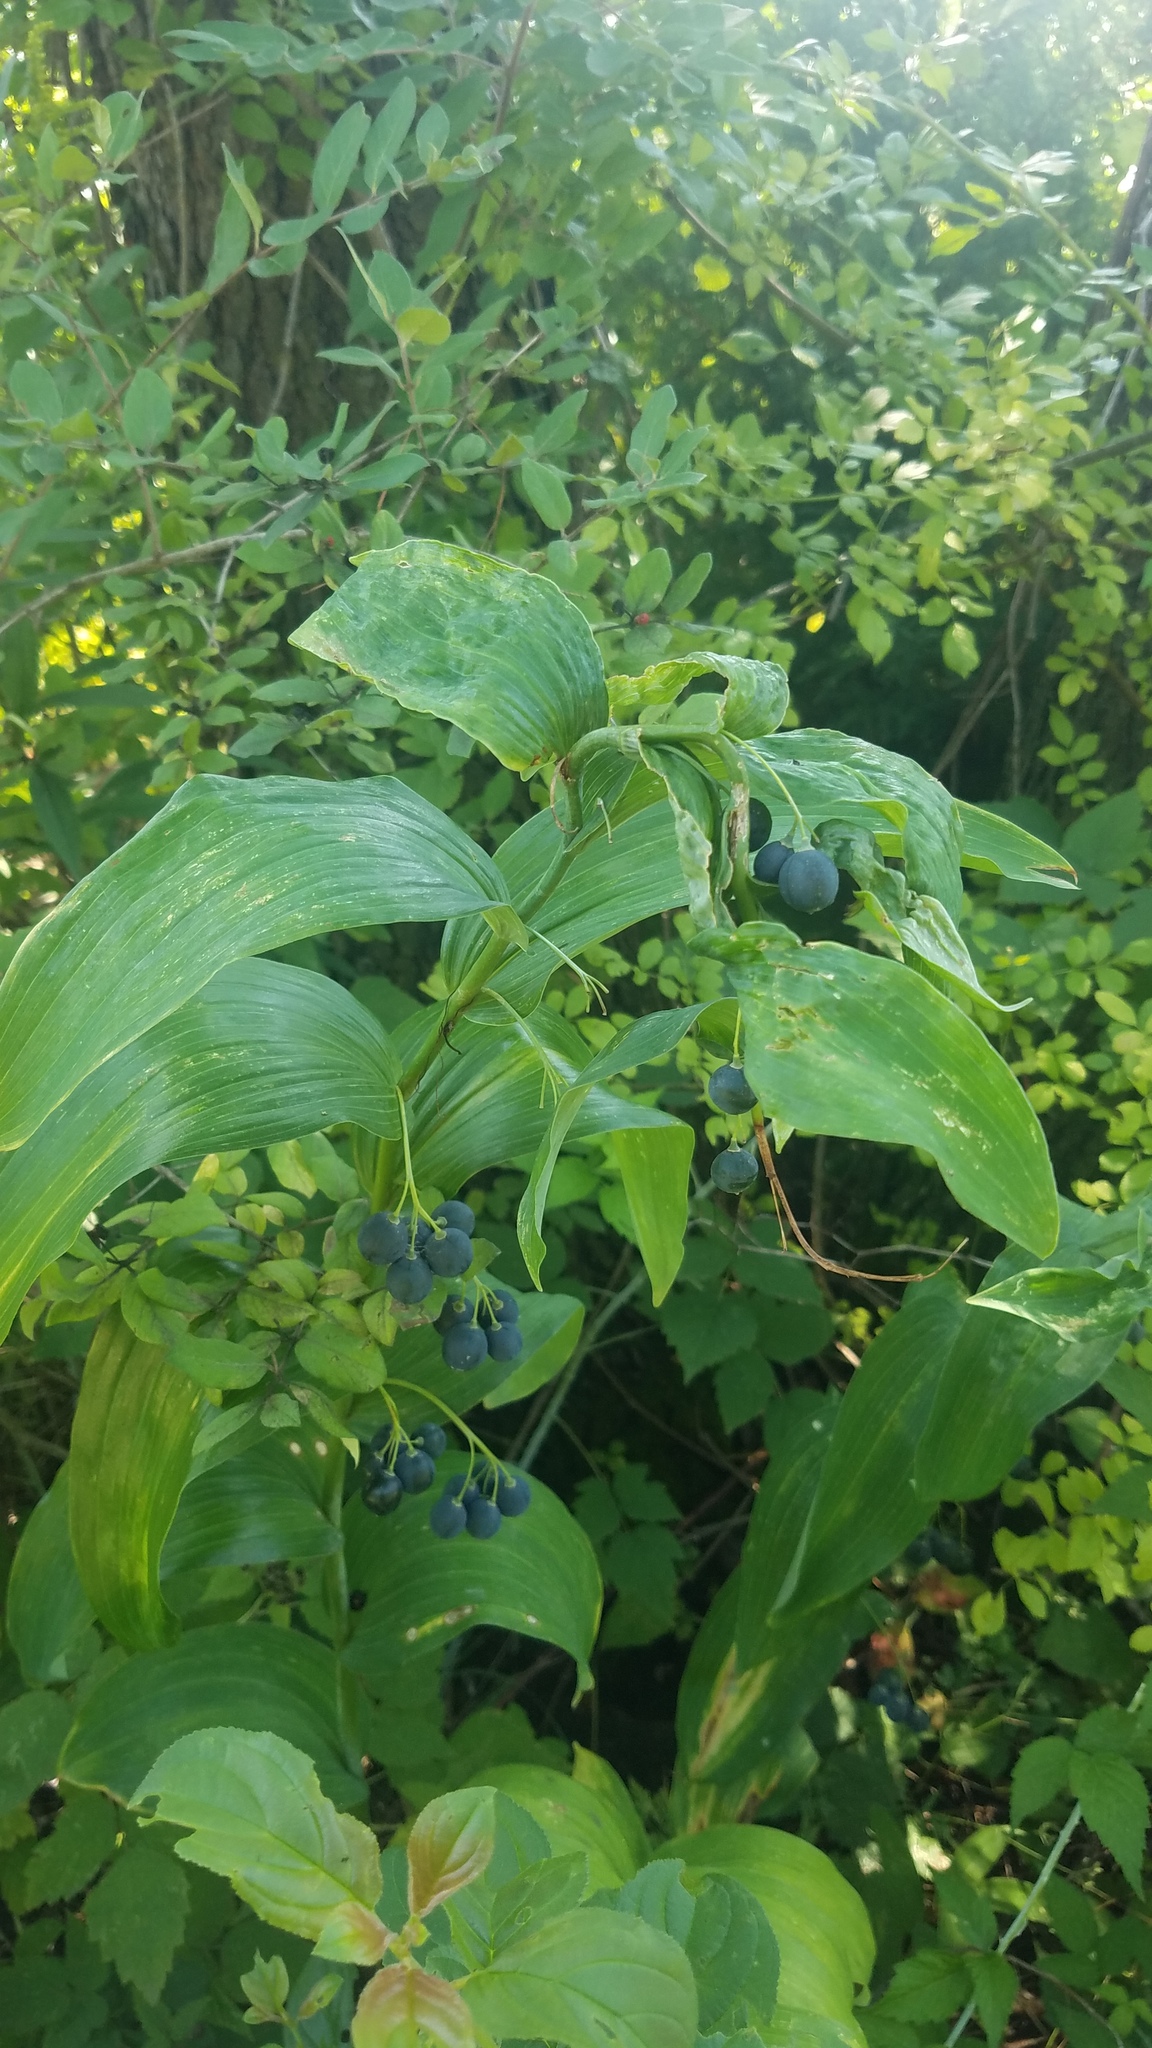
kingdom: Plantae
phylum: Tracheophyta
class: Liliopsida
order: Asparagales
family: Asparagaceae
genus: Polygonatum
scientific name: Polygonatum biflorum
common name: American solomon's-seal
